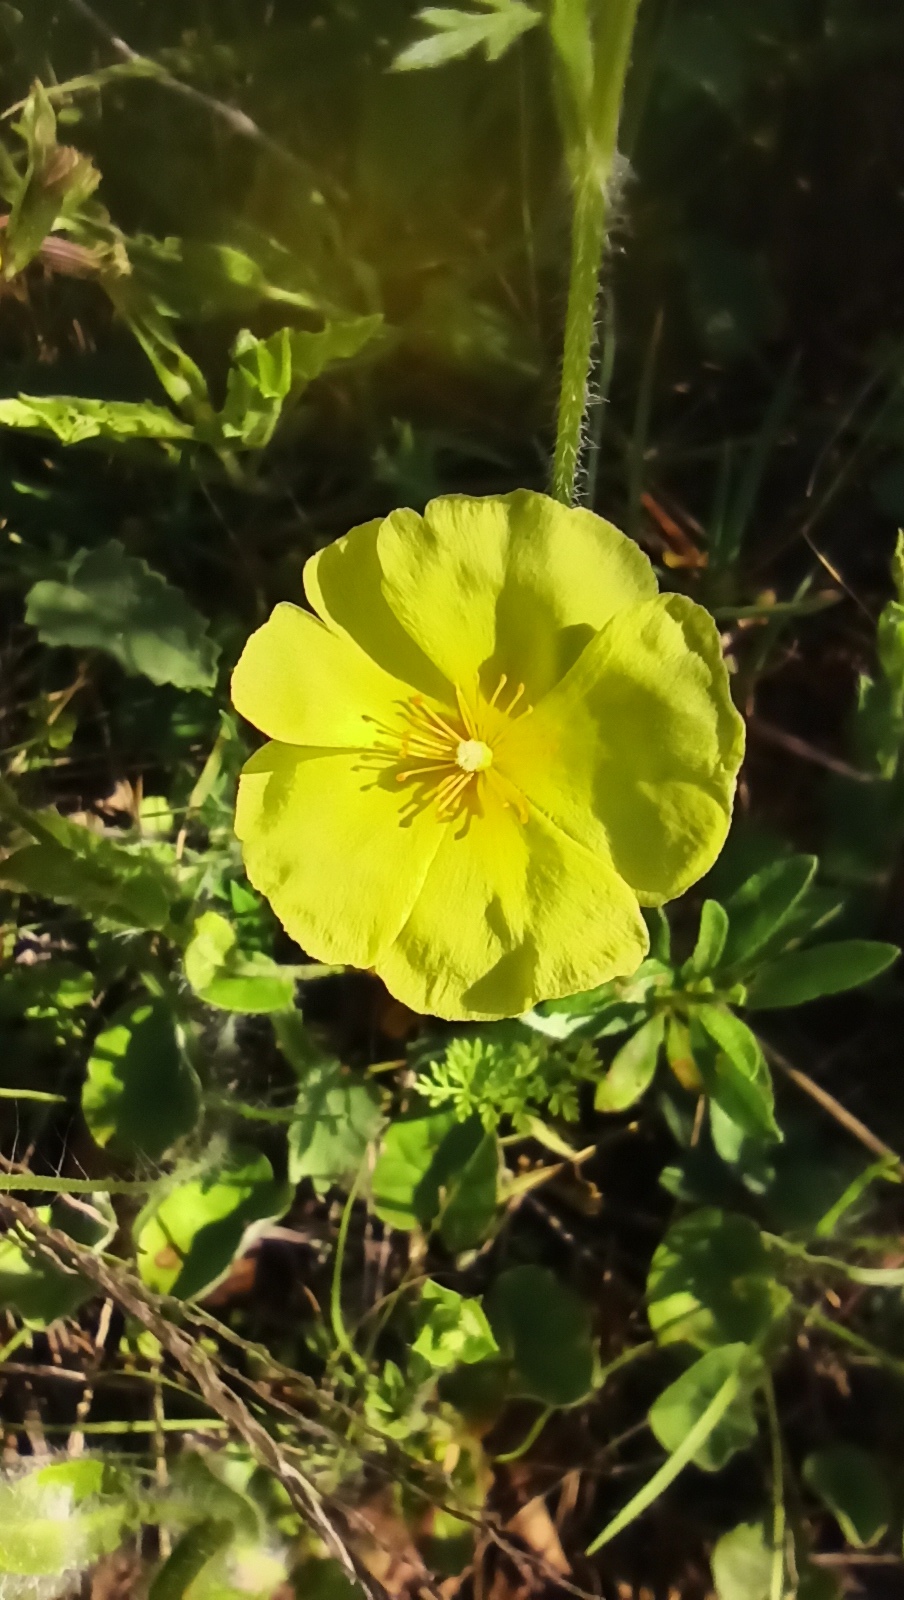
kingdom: Plantae
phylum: Tracheophyta
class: Magnoliopsida
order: Malvales
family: Cistaceae
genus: Crocanthemum
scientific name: Crocanthemum brasiliensis
